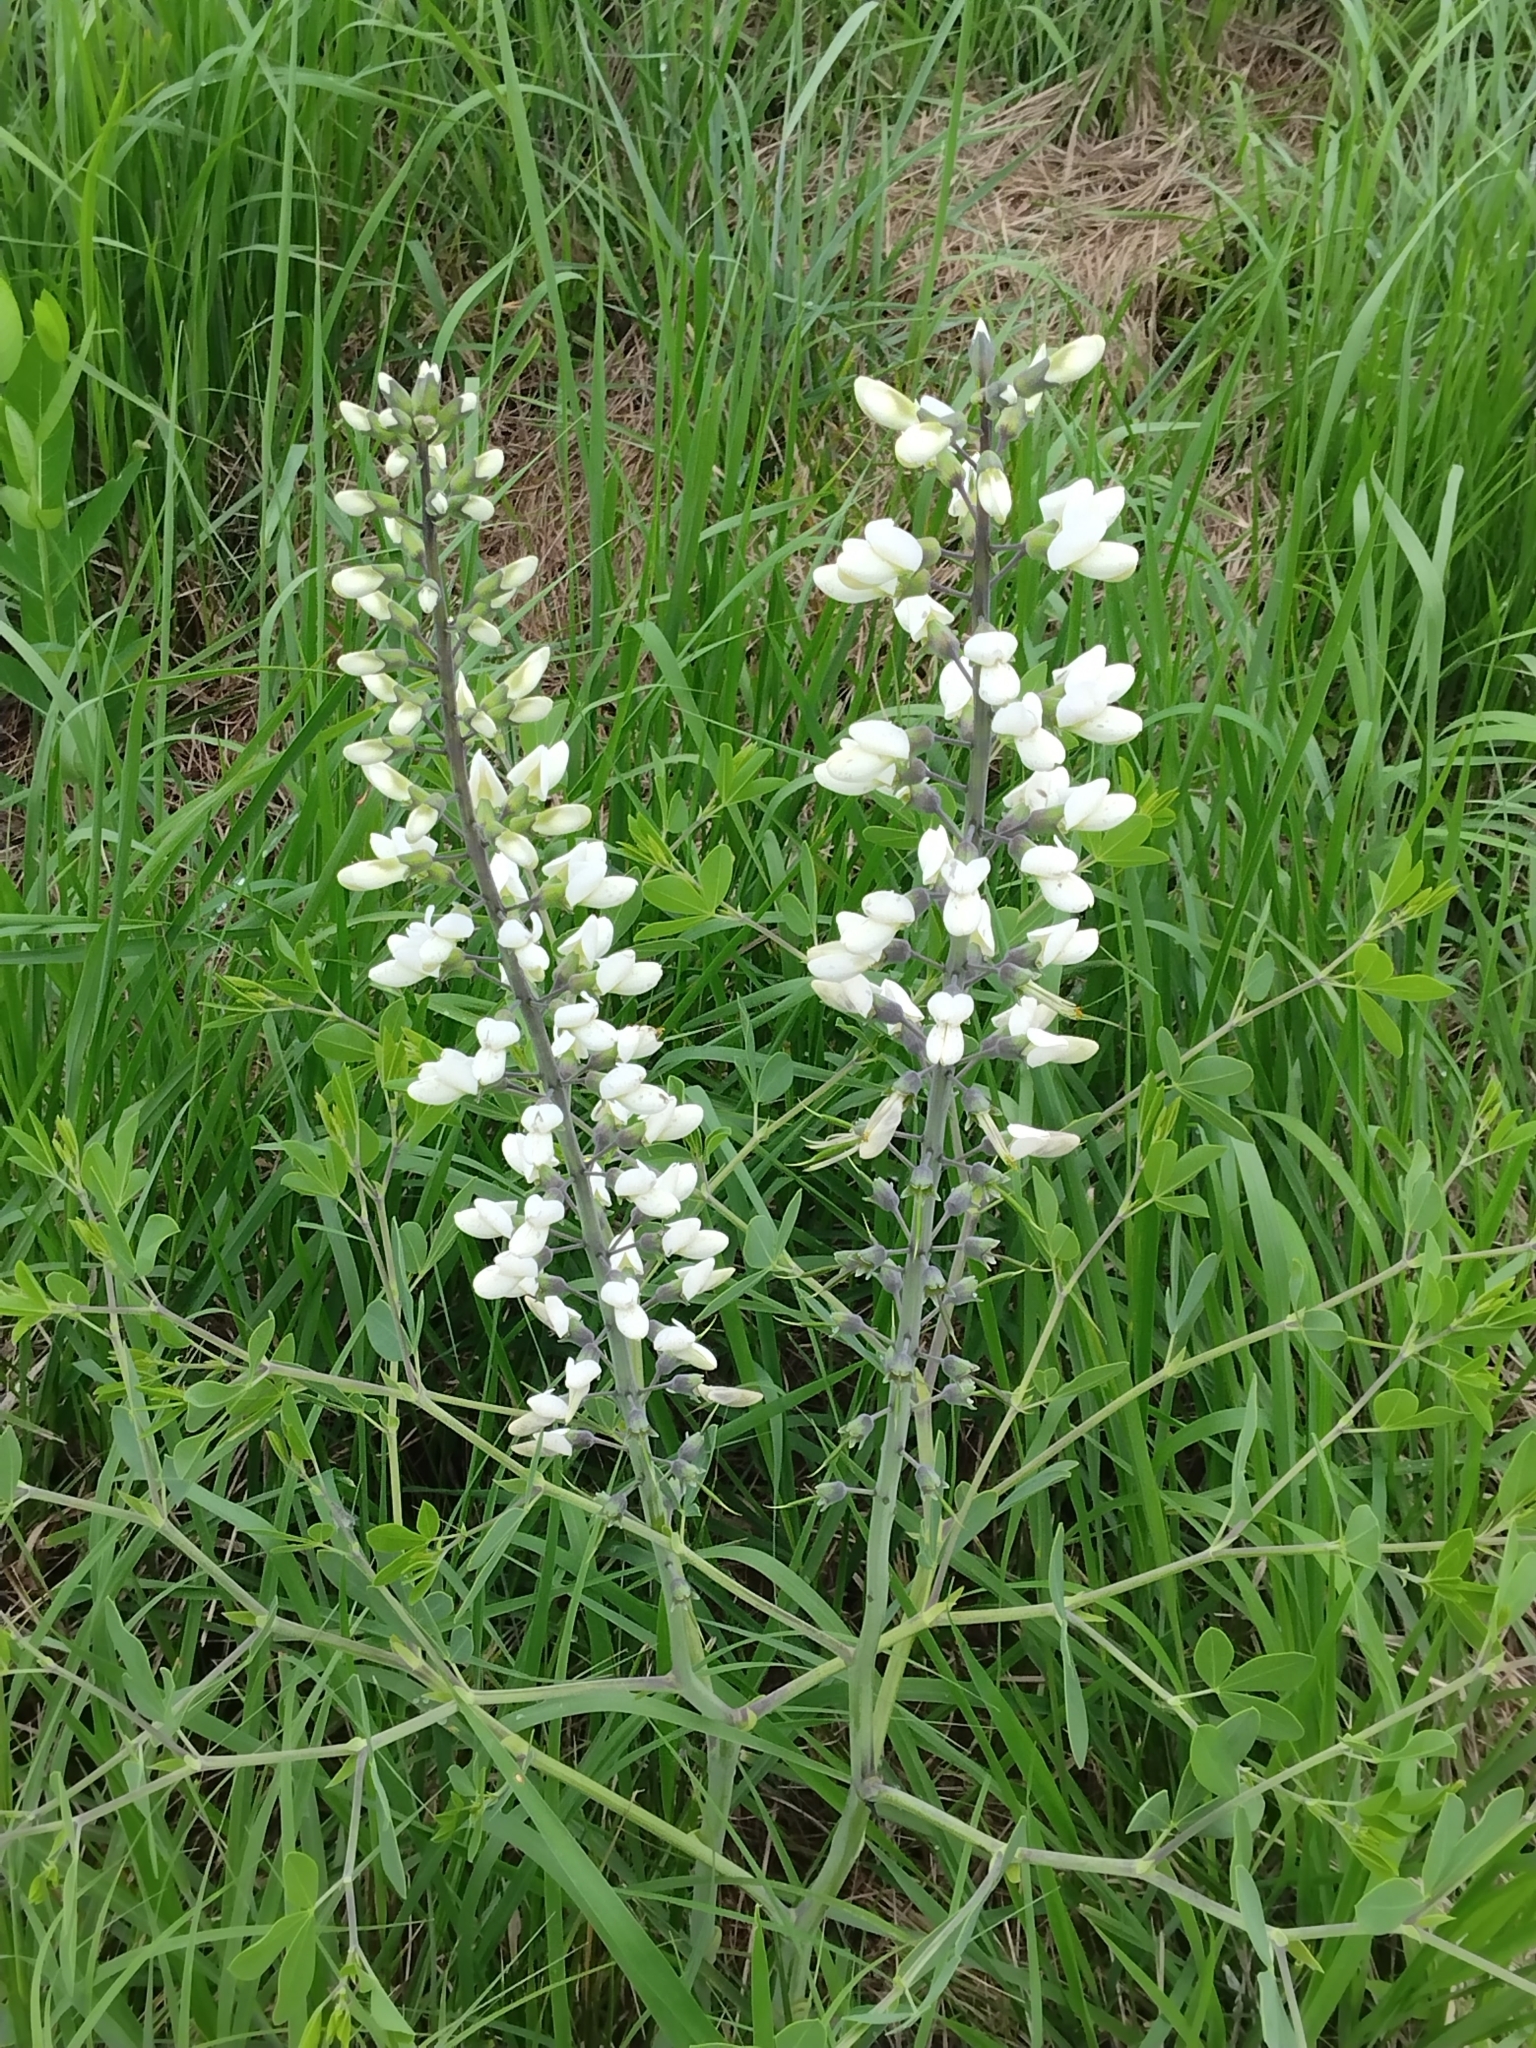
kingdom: Plantae
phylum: Tracheophyta
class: Magnoliopsida
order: Fabales
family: Fabaceae
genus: Baptisia
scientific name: Baptisia alba
